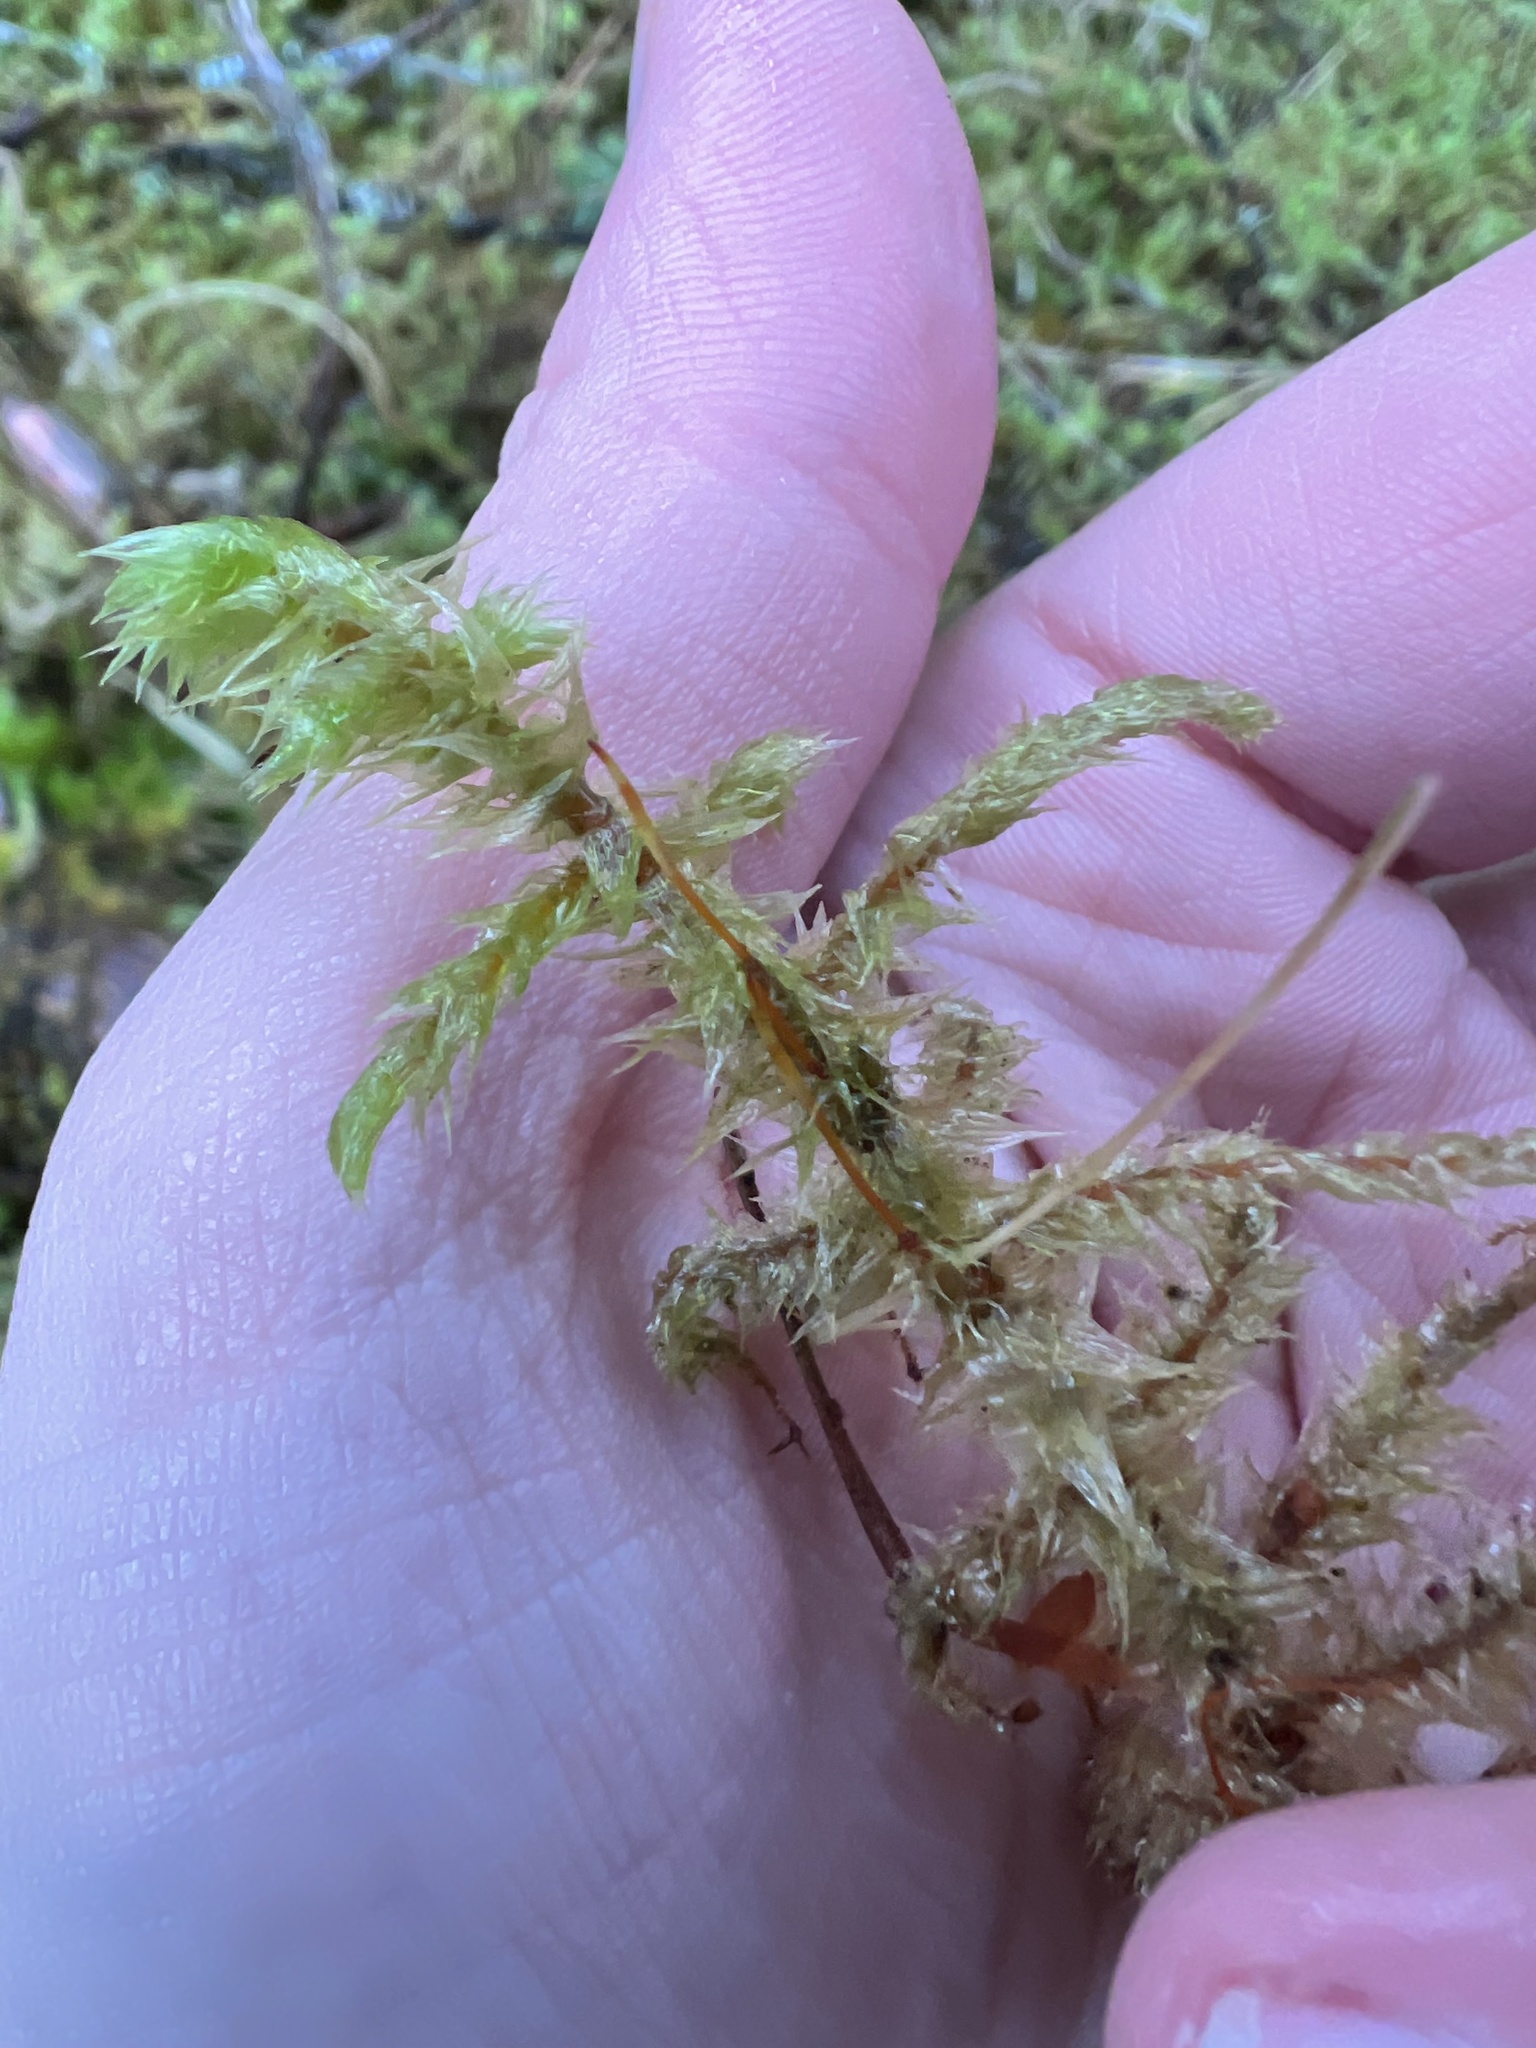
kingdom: Plantae
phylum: Bryophyta
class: Bryopsida
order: Hypnales
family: Hylocomiaceae
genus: Hylocomiadelphus
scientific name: Hylocomiadelphus triquetrus
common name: Rough goose neck moss
